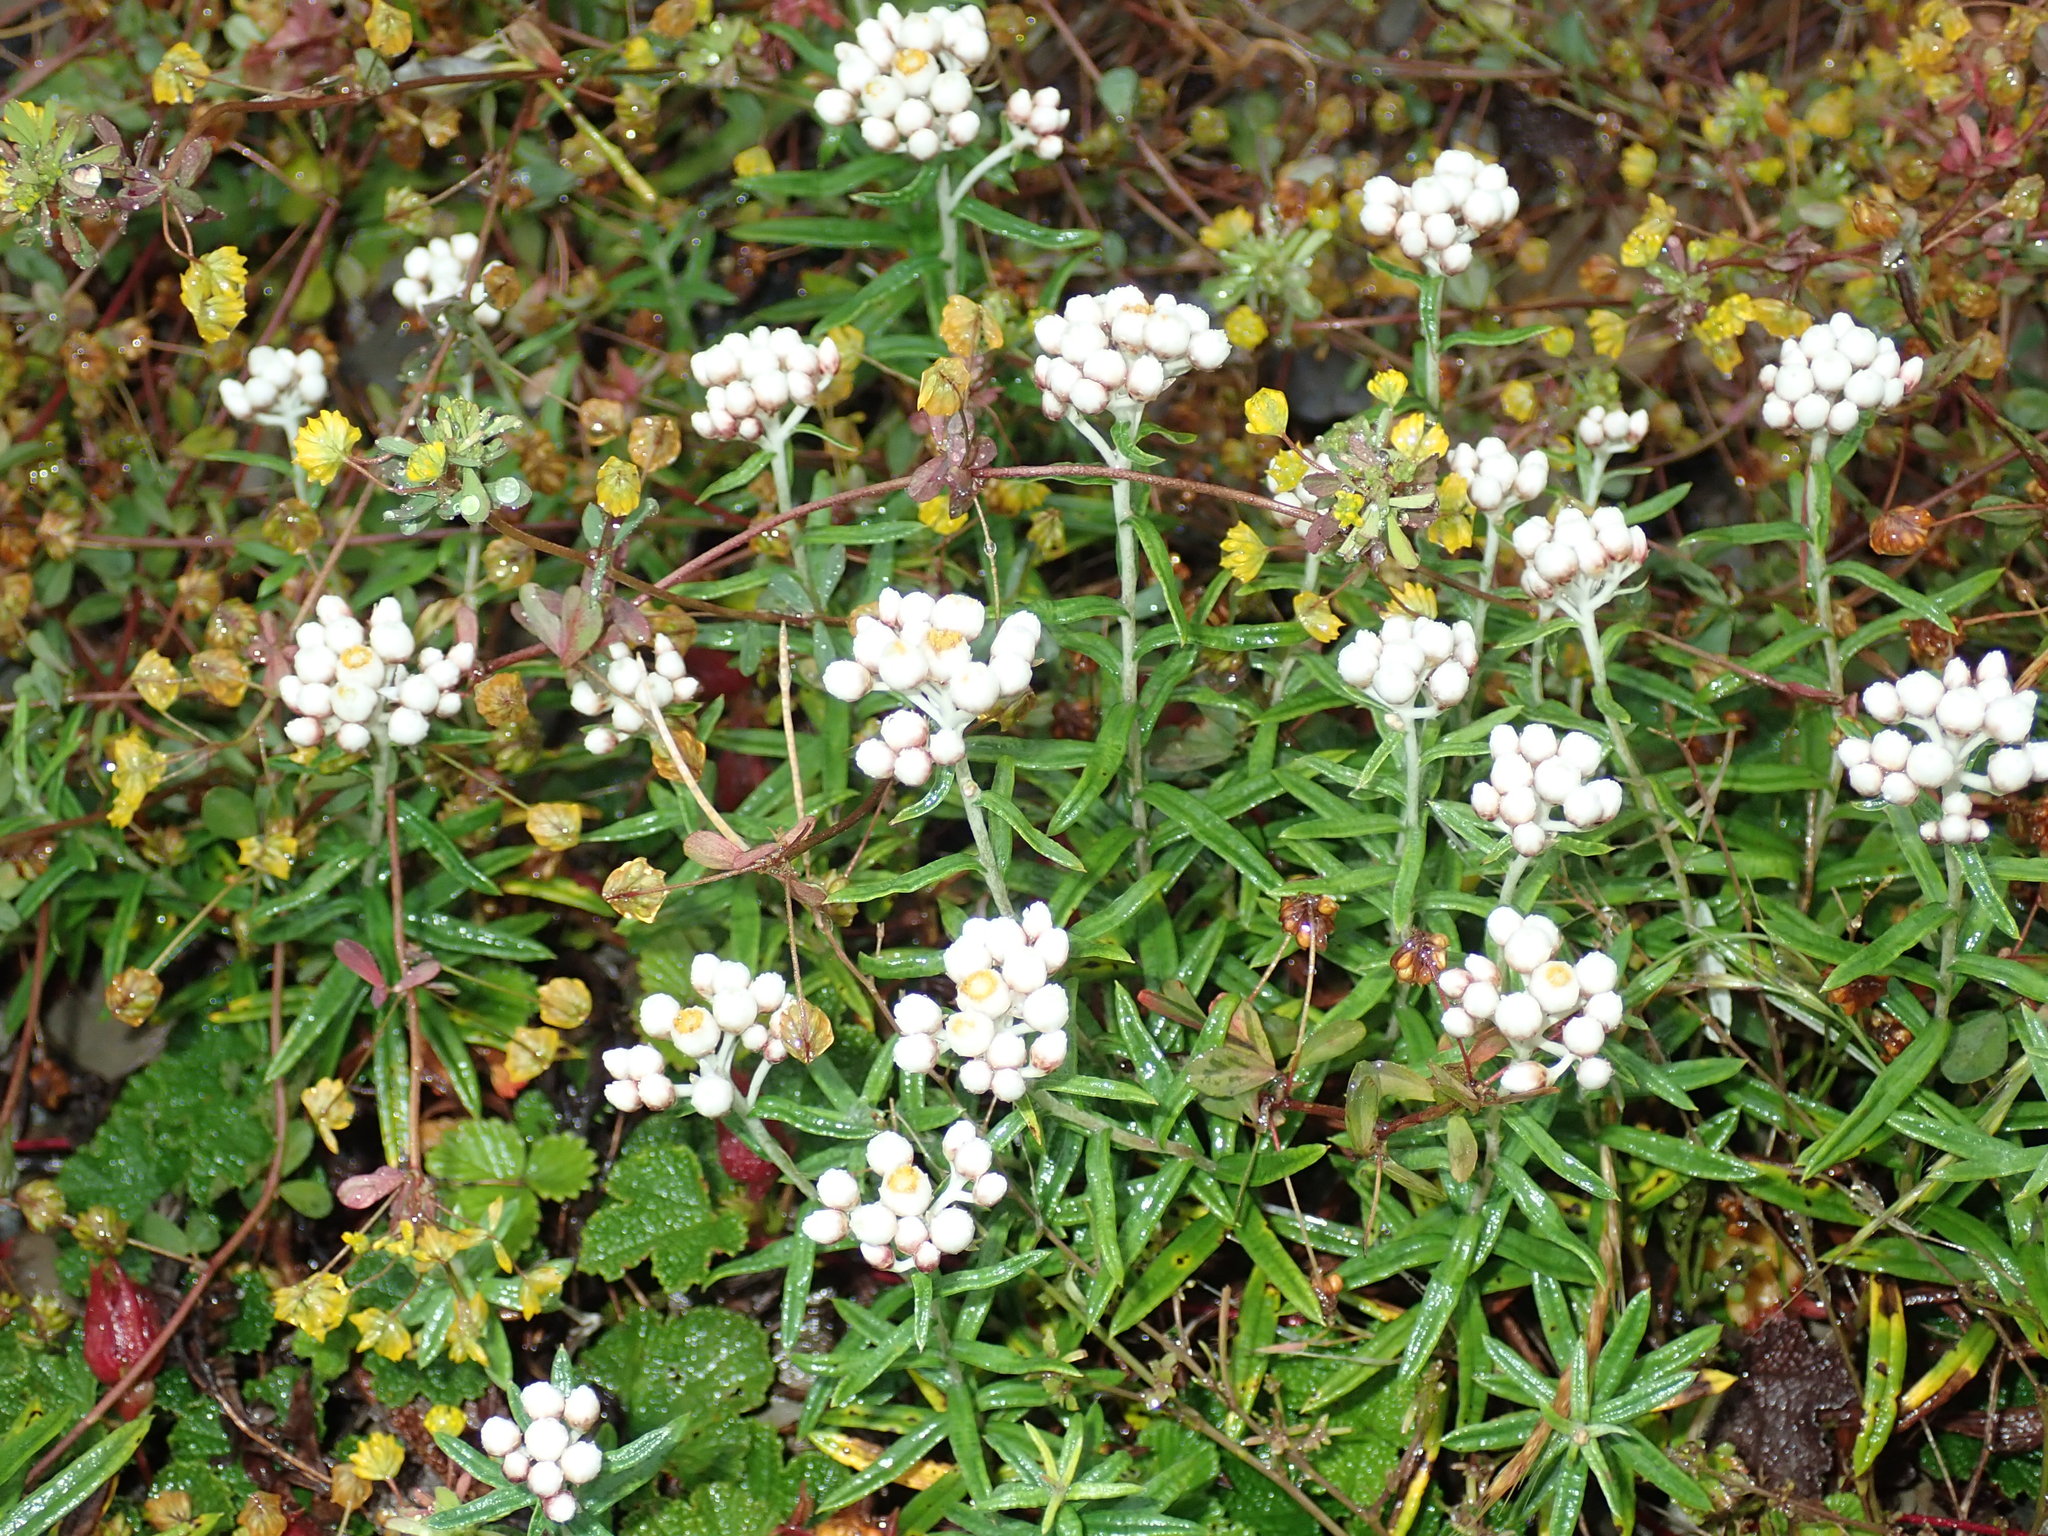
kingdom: Plantae
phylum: Tracheophyta
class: Magnoliopsida
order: Asterales
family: Asteraceae
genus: Anaphalis
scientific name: Anaphalis morrisonicola
